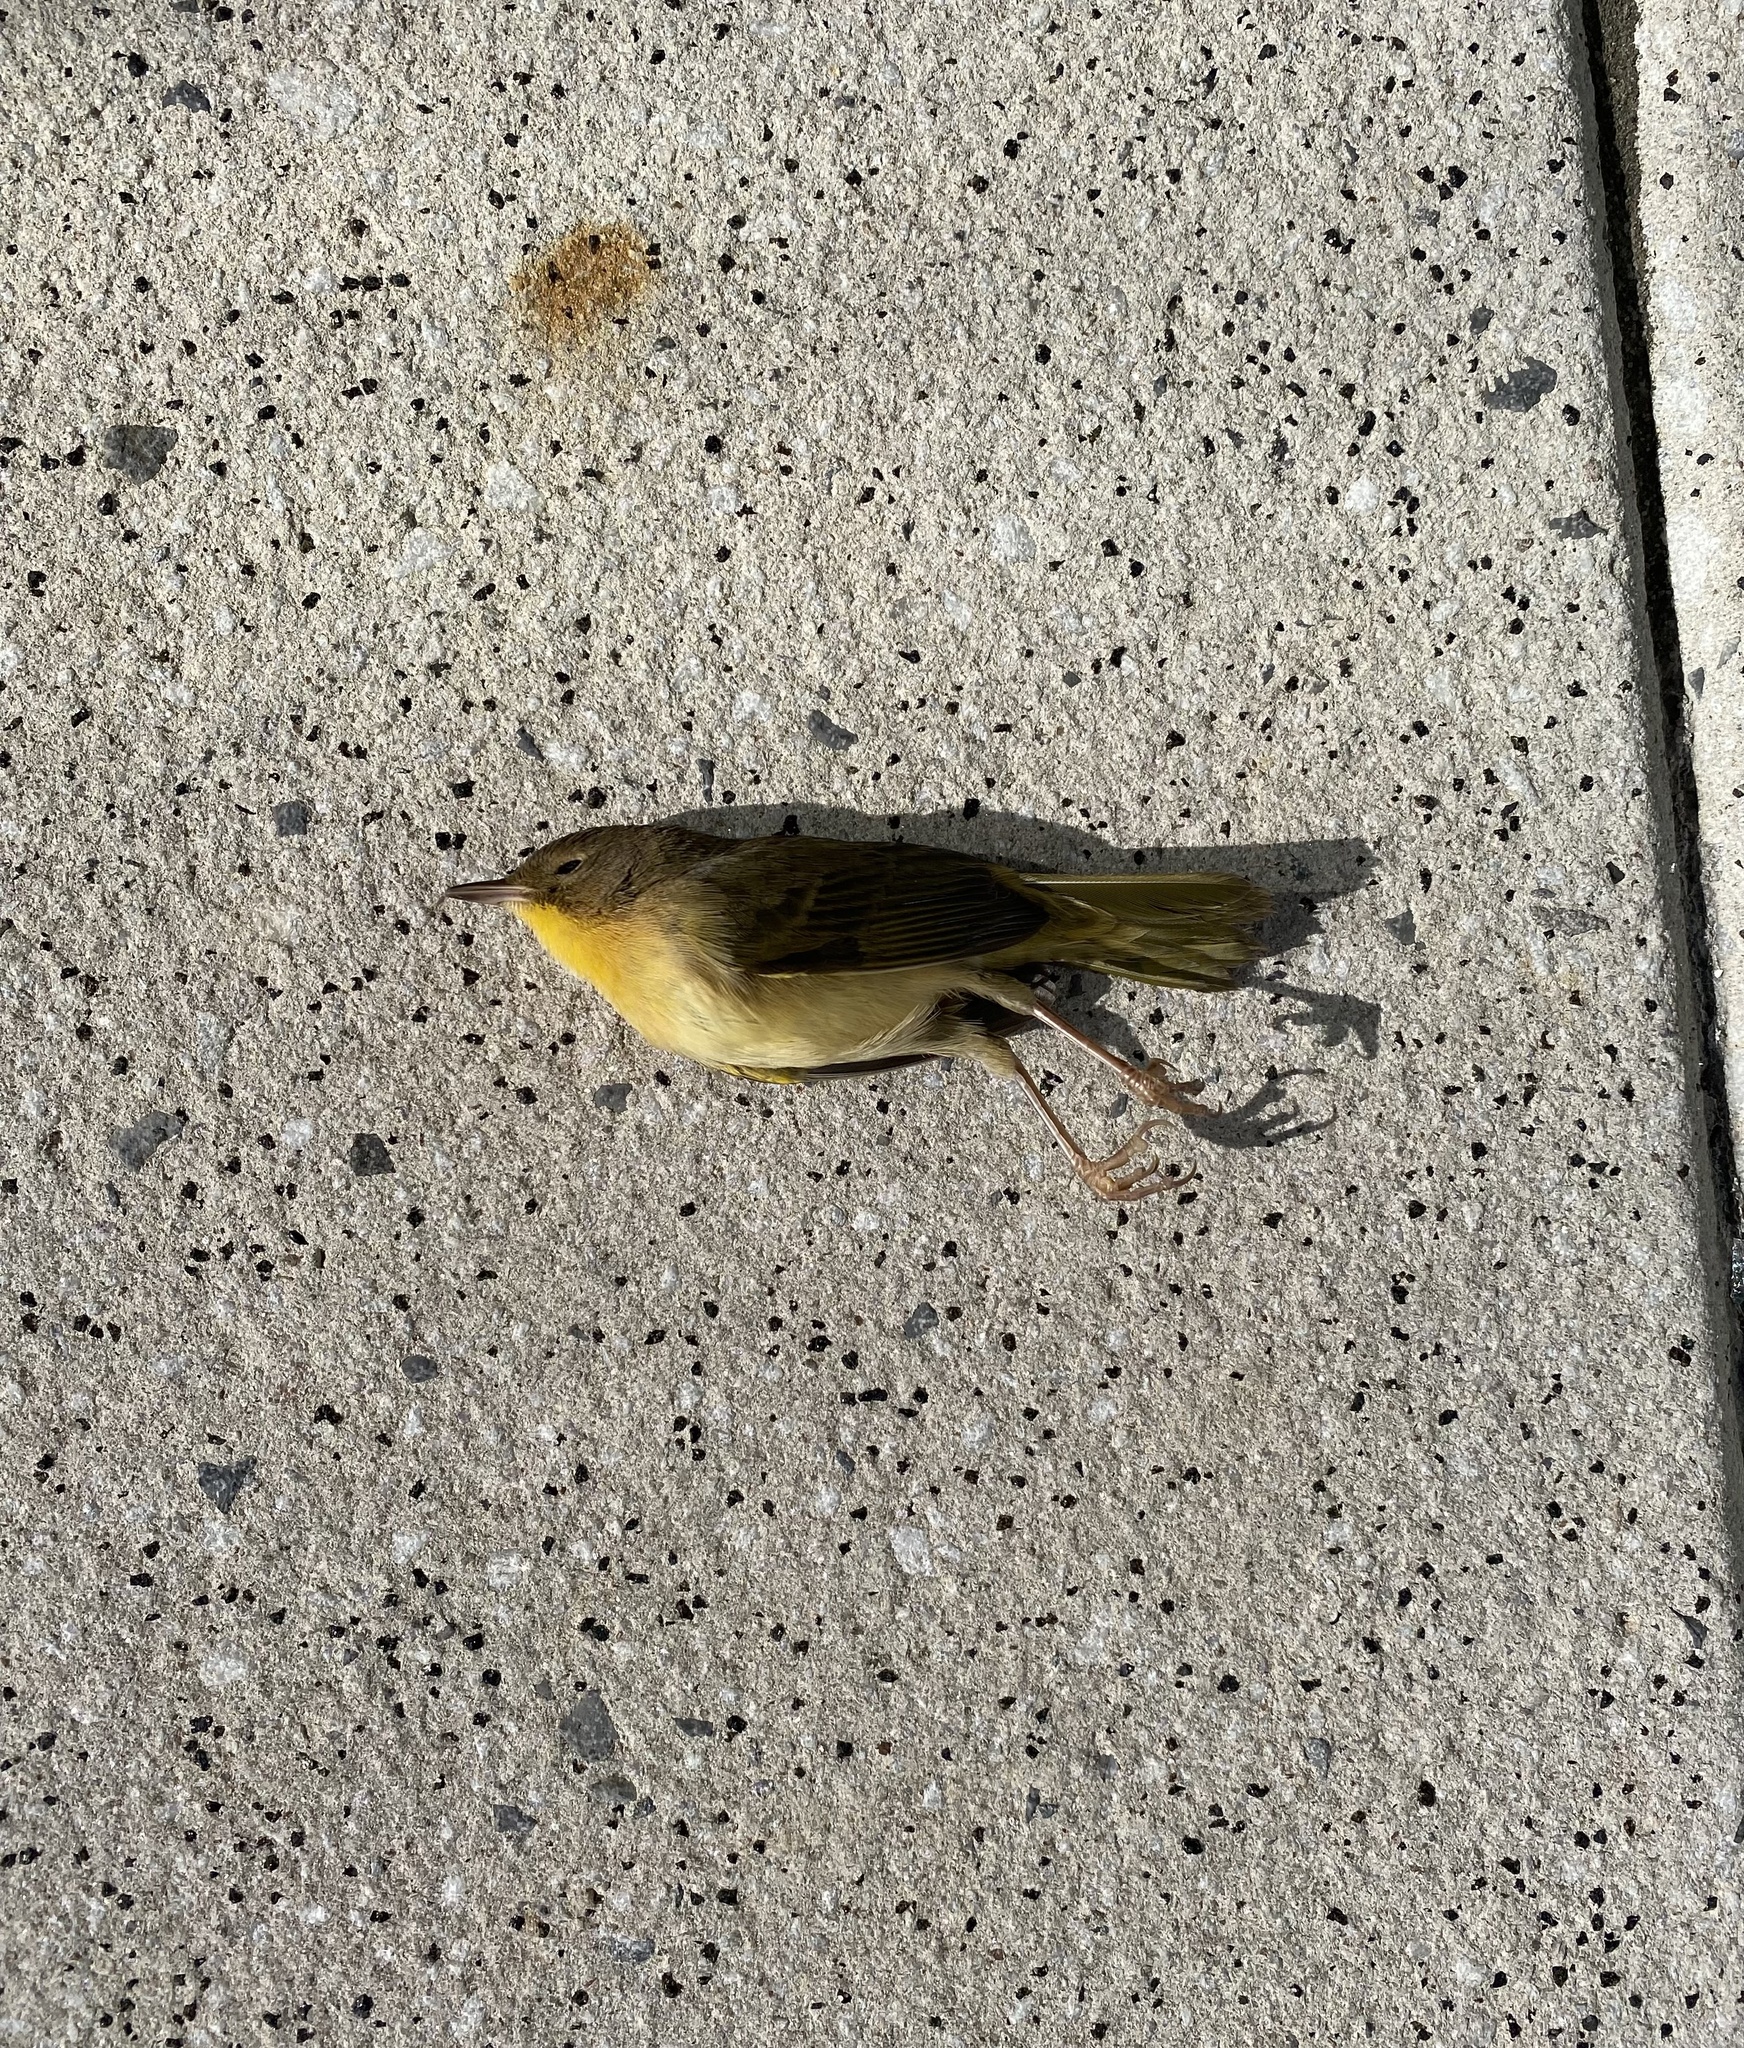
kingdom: Animalia
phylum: Chordata
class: Aves
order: Passeriformes
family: Parulidae
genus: Geothlypis
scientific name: Geothlypis trichas
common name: Common yellowthroat
